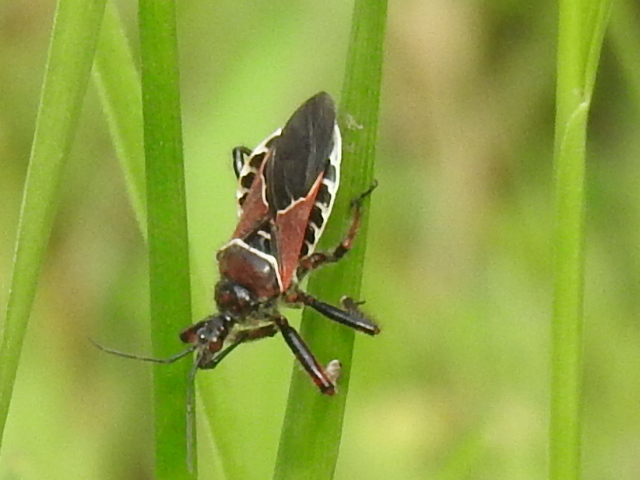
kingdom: Animalia
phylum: Arthropoda
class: Insecta
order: Hemiptera
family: Reduviidae
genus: Apiomerus
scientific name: Apiomerus spissipes
